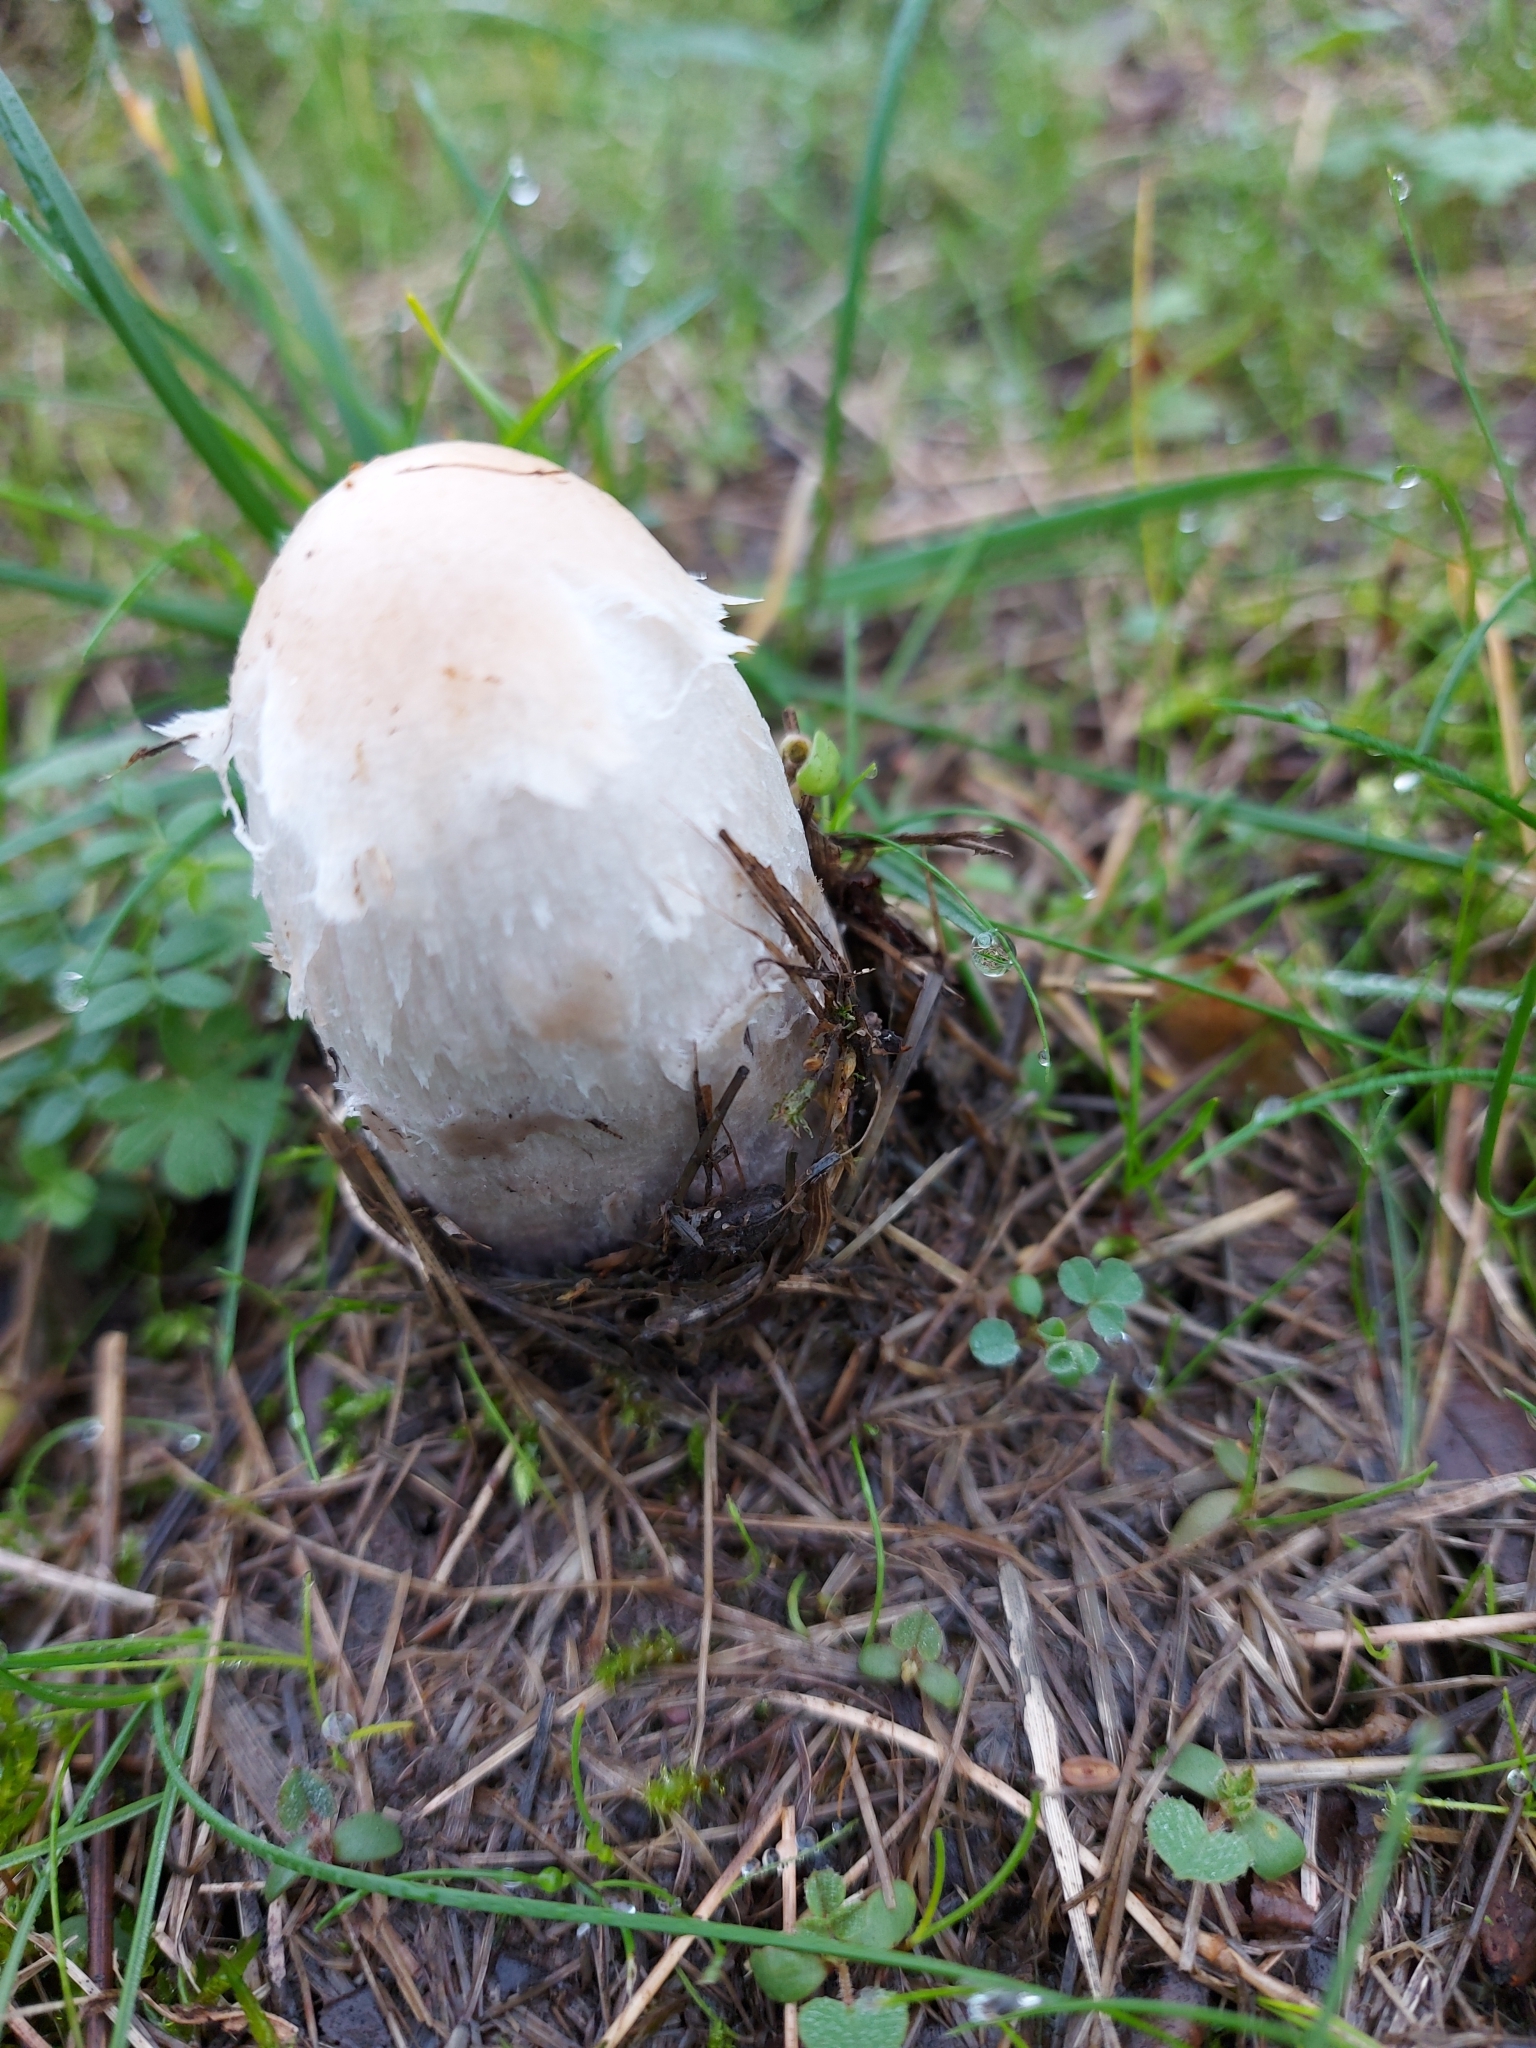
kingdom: Fungi
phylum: Basidiomycota
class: Agaricomycetes
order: Agaricales
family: Agaricaceae
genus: Coprinus
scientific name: Coprinus comatus
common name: Lawyer's wig
